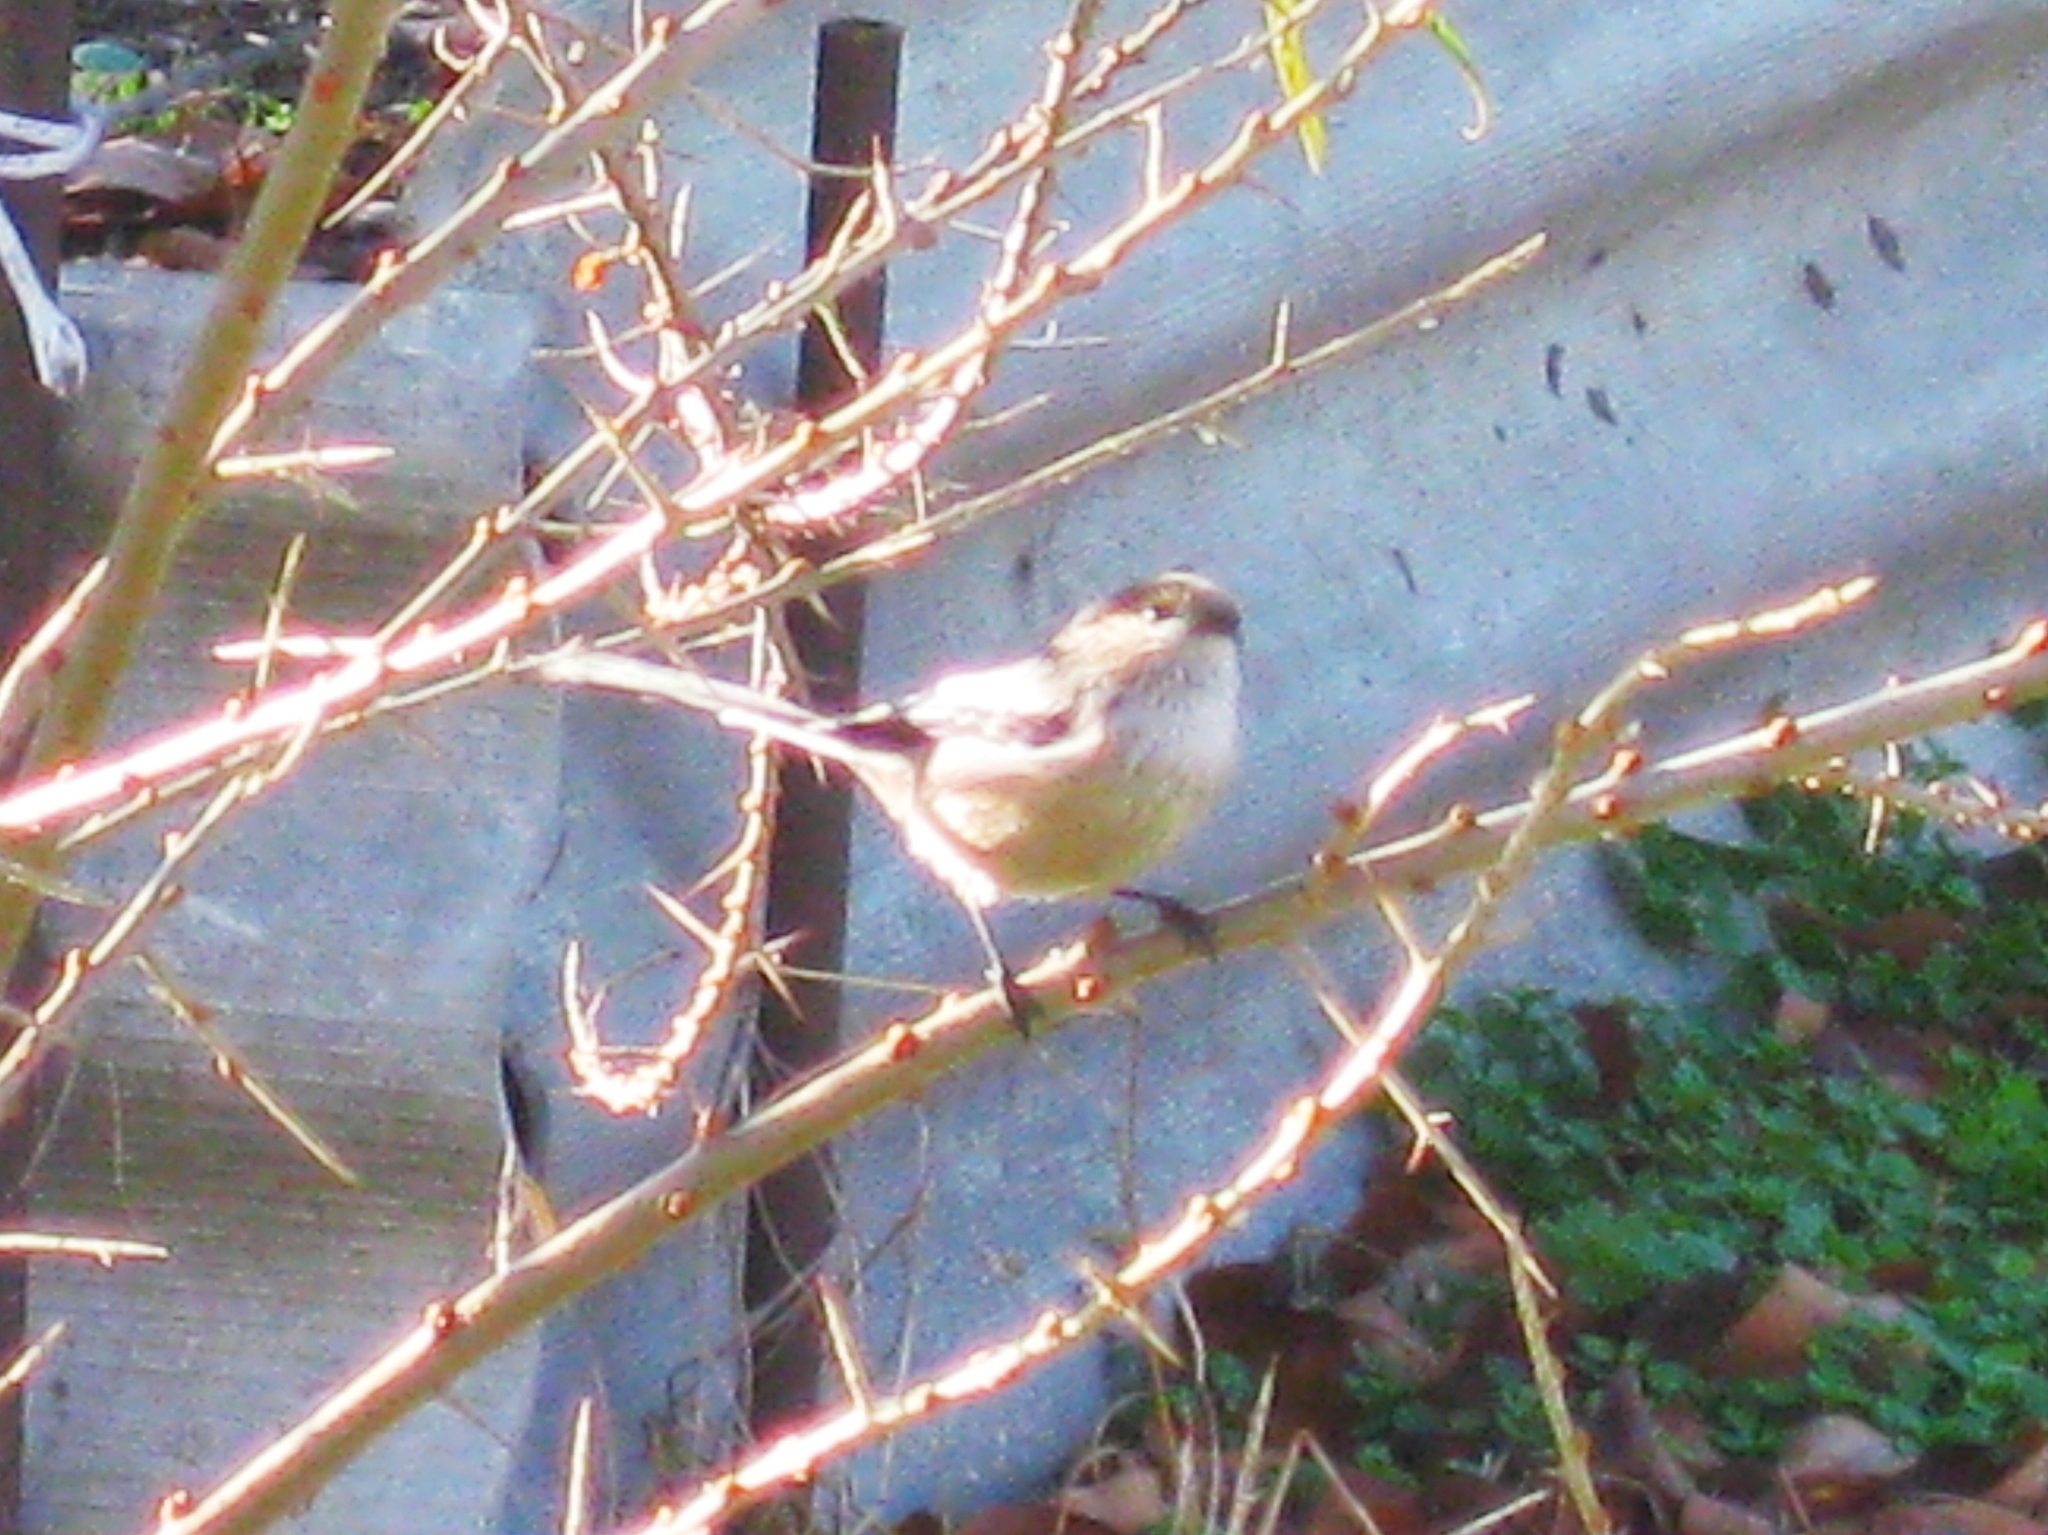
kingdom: Animalia
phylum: Chordata
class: Aves
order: Passeriformes
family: Aegithalidae
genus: Aegithalos
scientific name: Aegithalos caudatus
